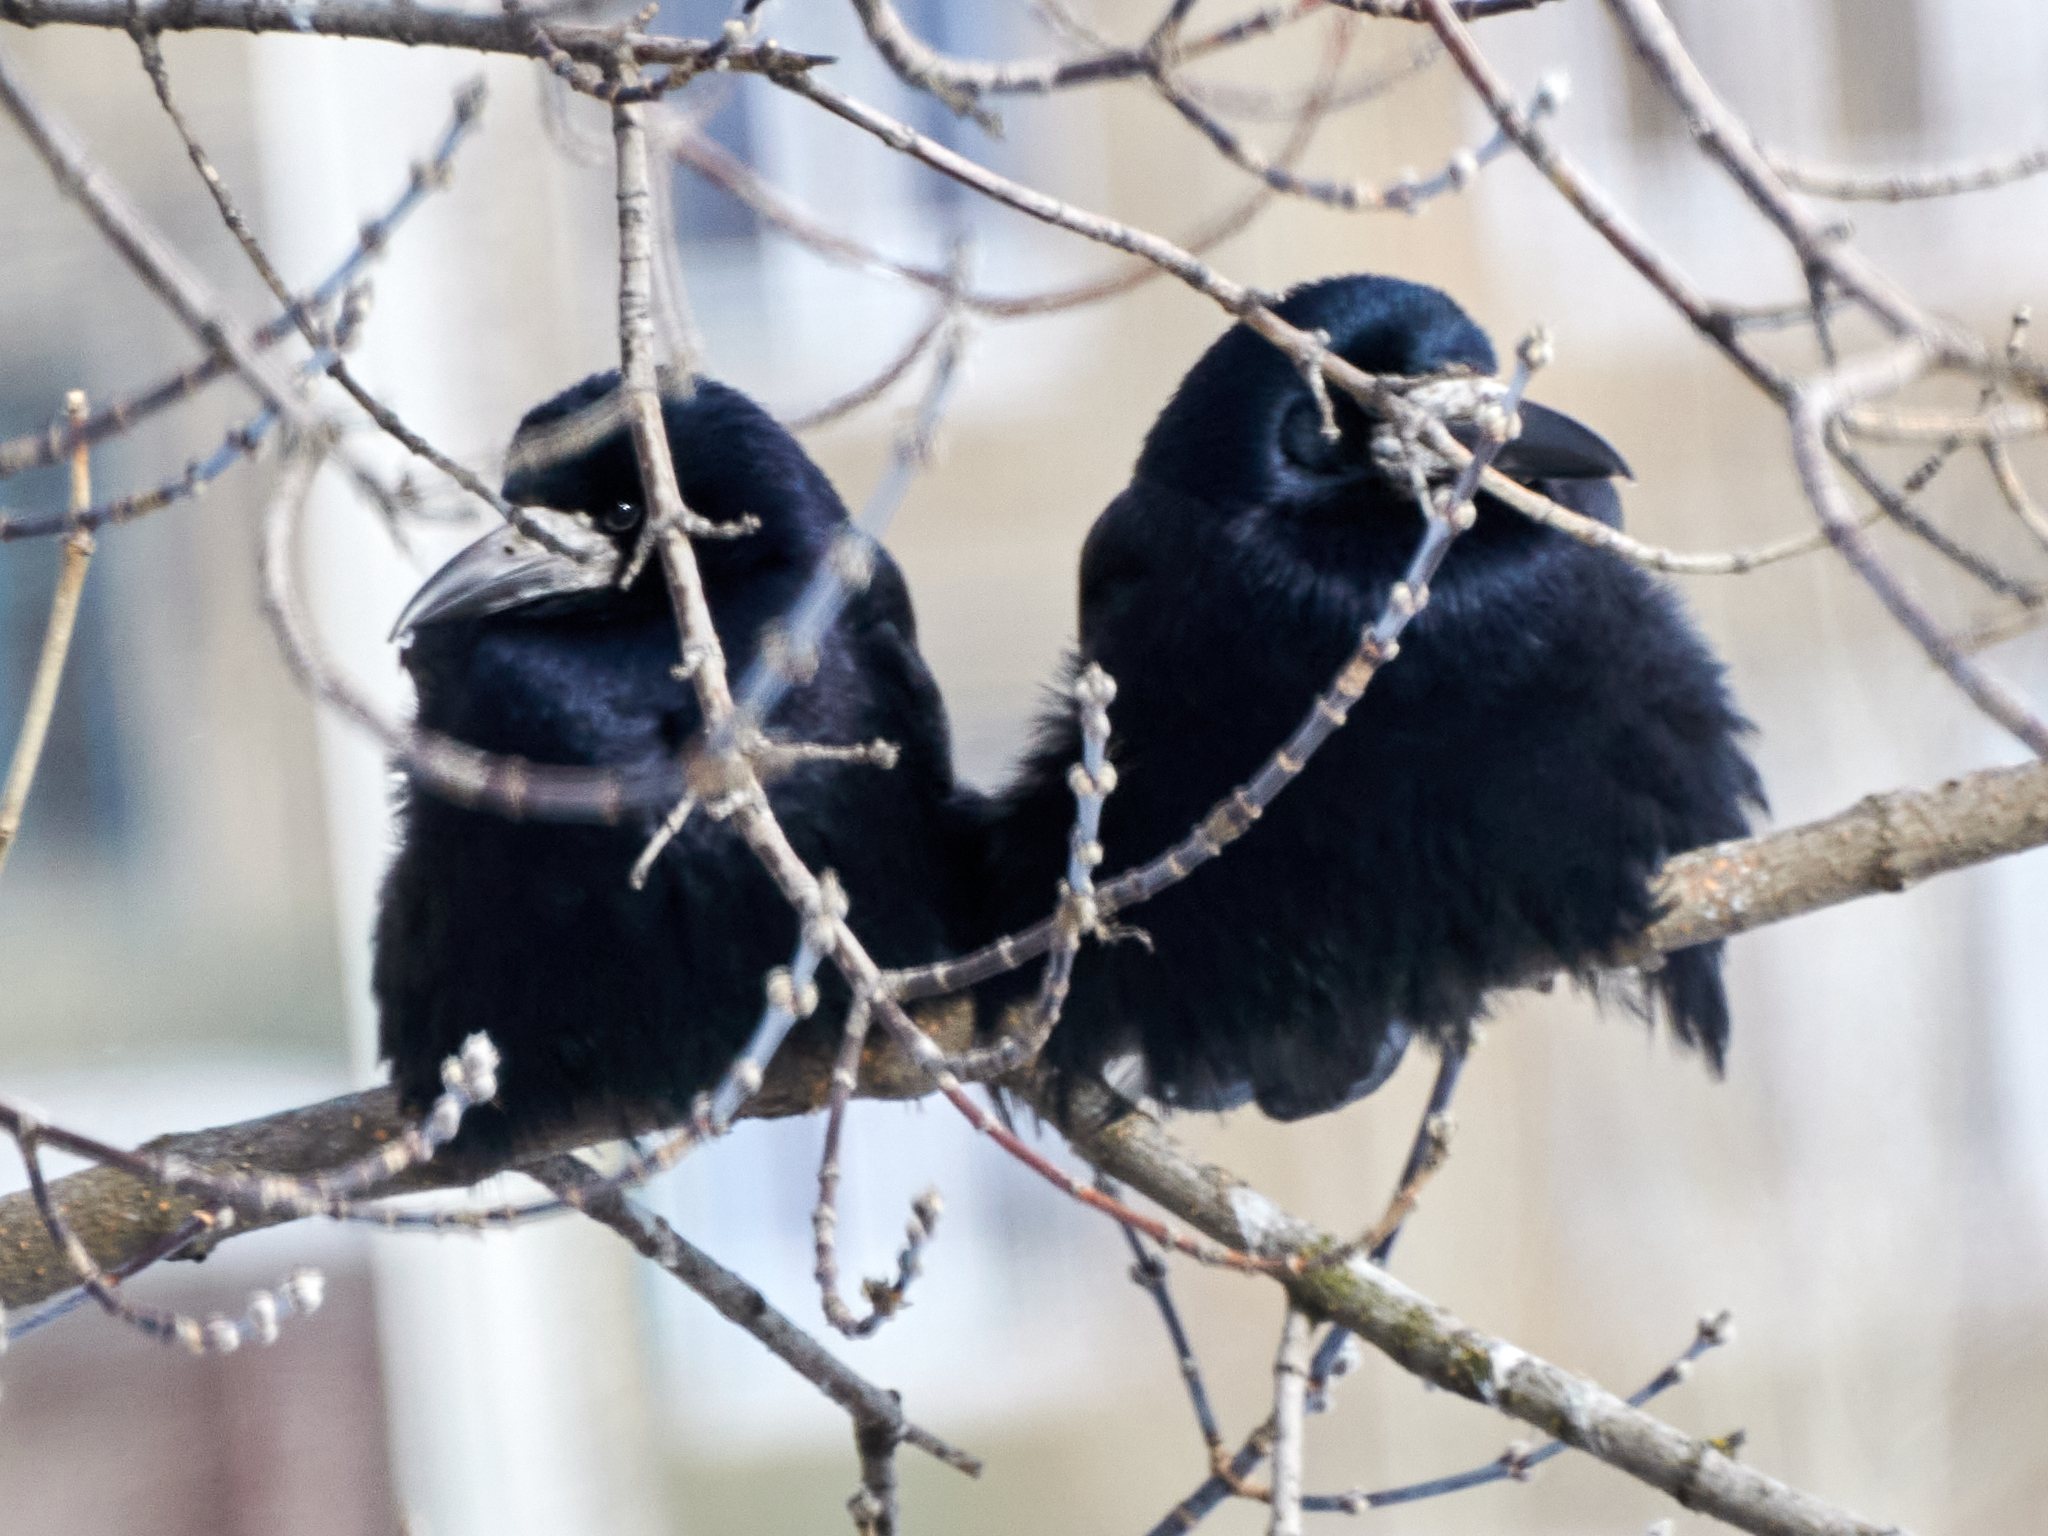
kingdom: Animalia
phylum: Chordata
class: Aves
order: Passeriformes
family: Corvidae
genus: Corvus
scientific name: Corvus frugilegus
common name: Rook
